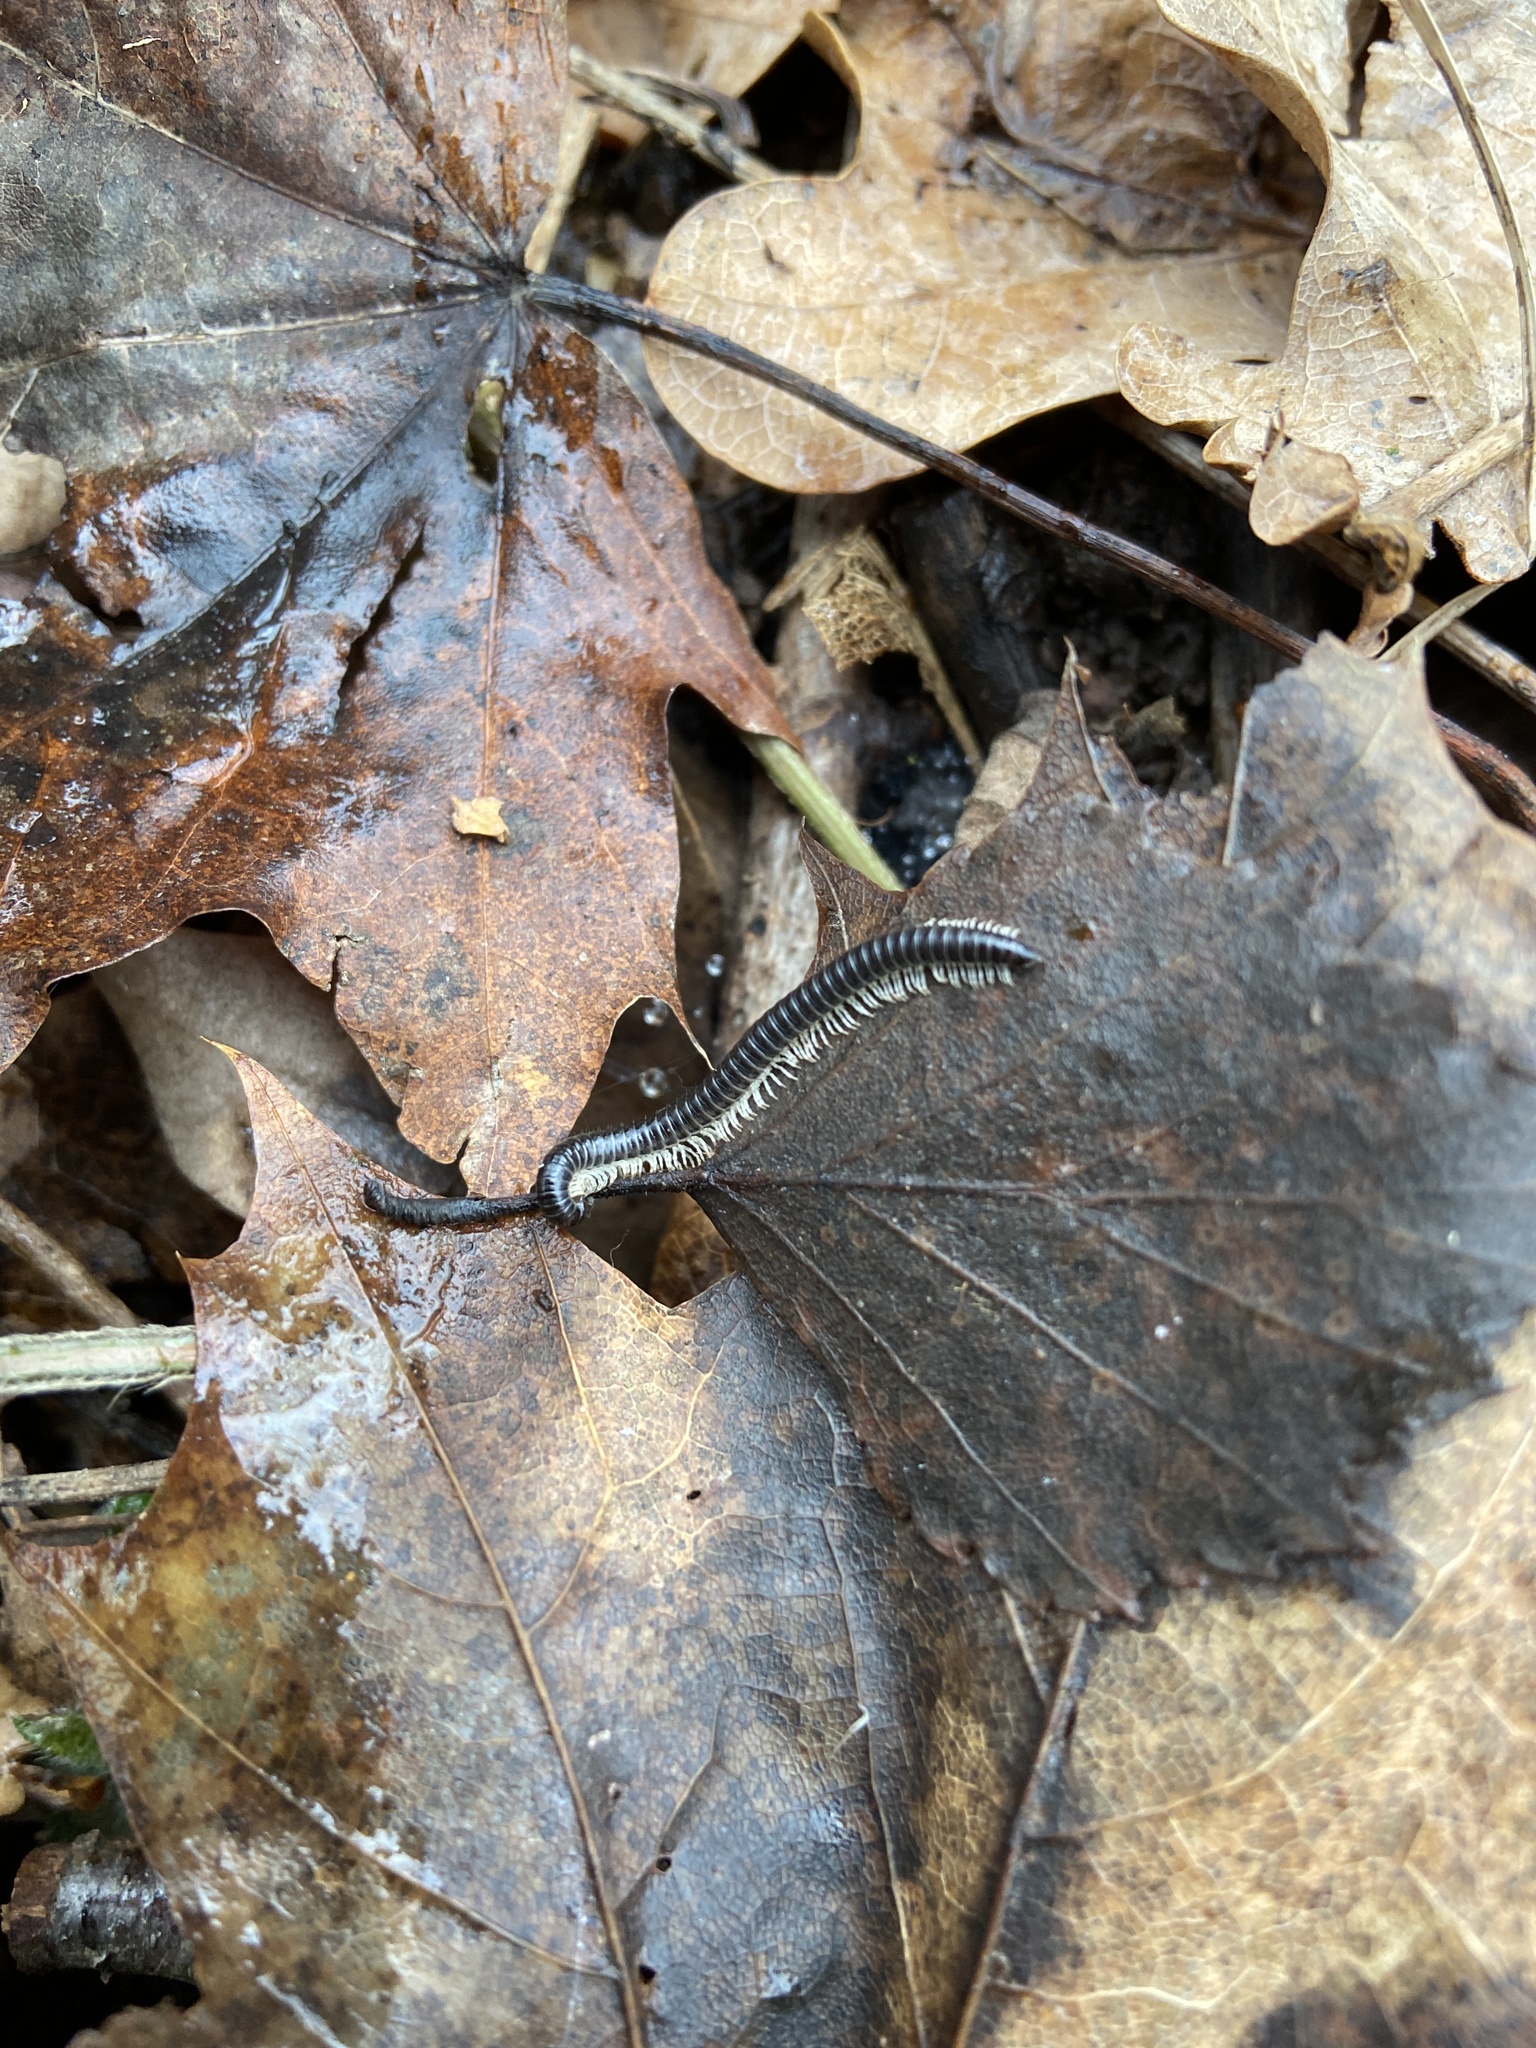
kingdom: Animalia
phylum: Arthropoda
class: Diplopoda
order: Julida
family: Julidae
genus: Tachypodoiulus
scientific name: Tachypodoiulus niger
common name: White-legged snake millipede
